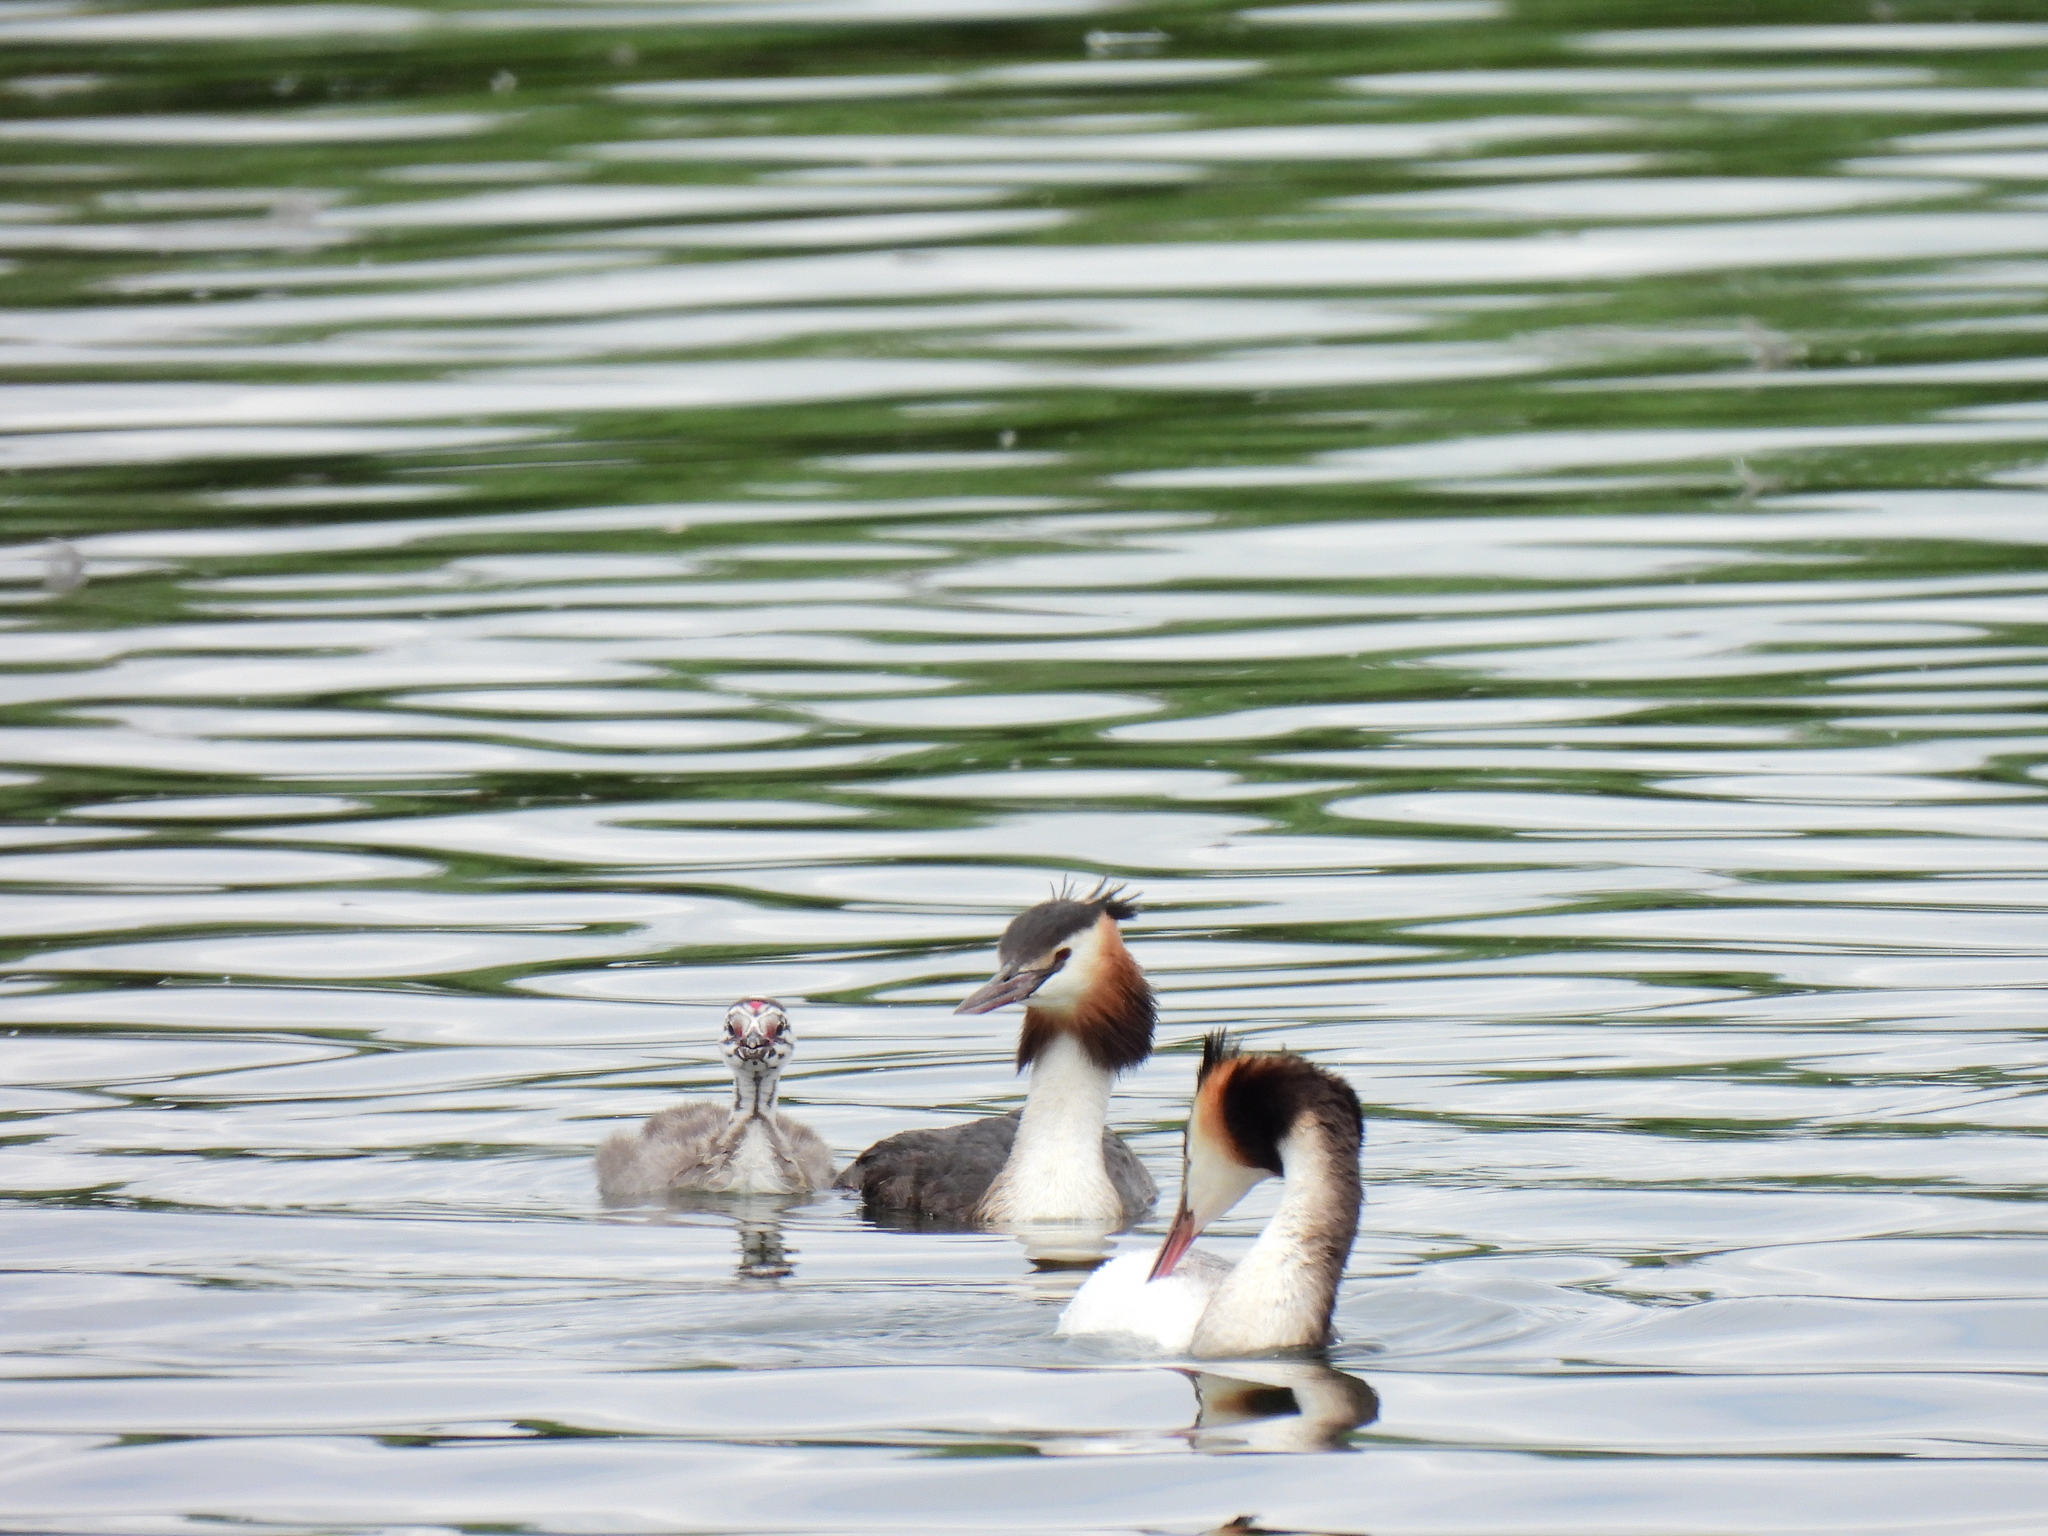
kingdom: Animalia
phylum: Chordata
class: Aves
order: Podicipediformes
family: Podicipedidae
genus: Podiceps
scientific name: Podiceps cristatus
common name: Great crested grebe
